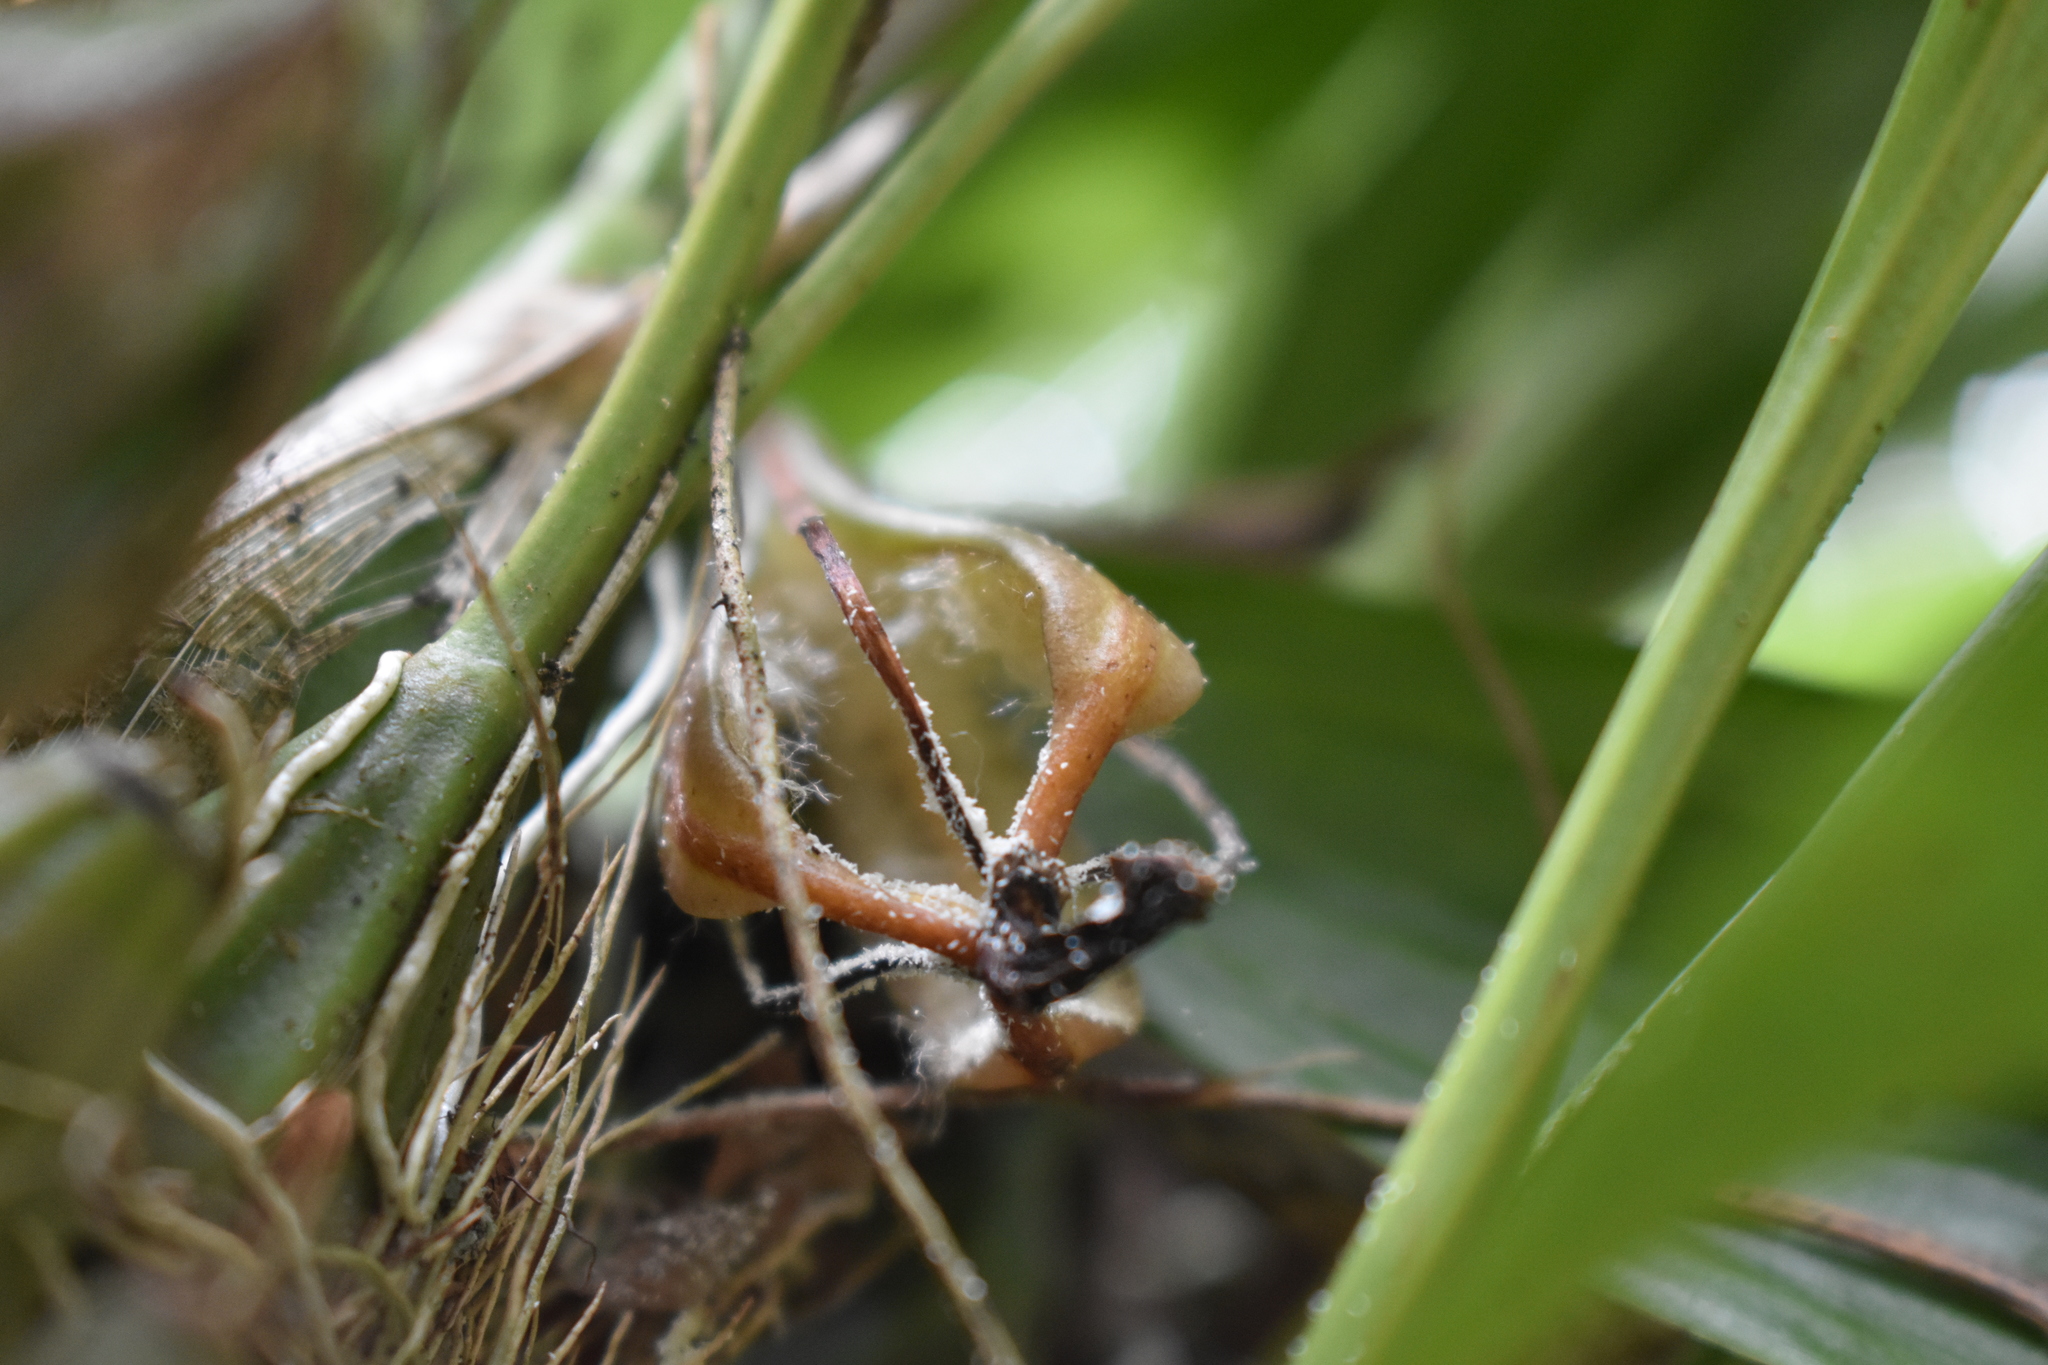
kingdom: Plantae
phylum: Tracheophyta
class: Liliopsida
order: Asparagales
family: Orchidaceae
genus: Gongora
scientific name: Gongora galeata
